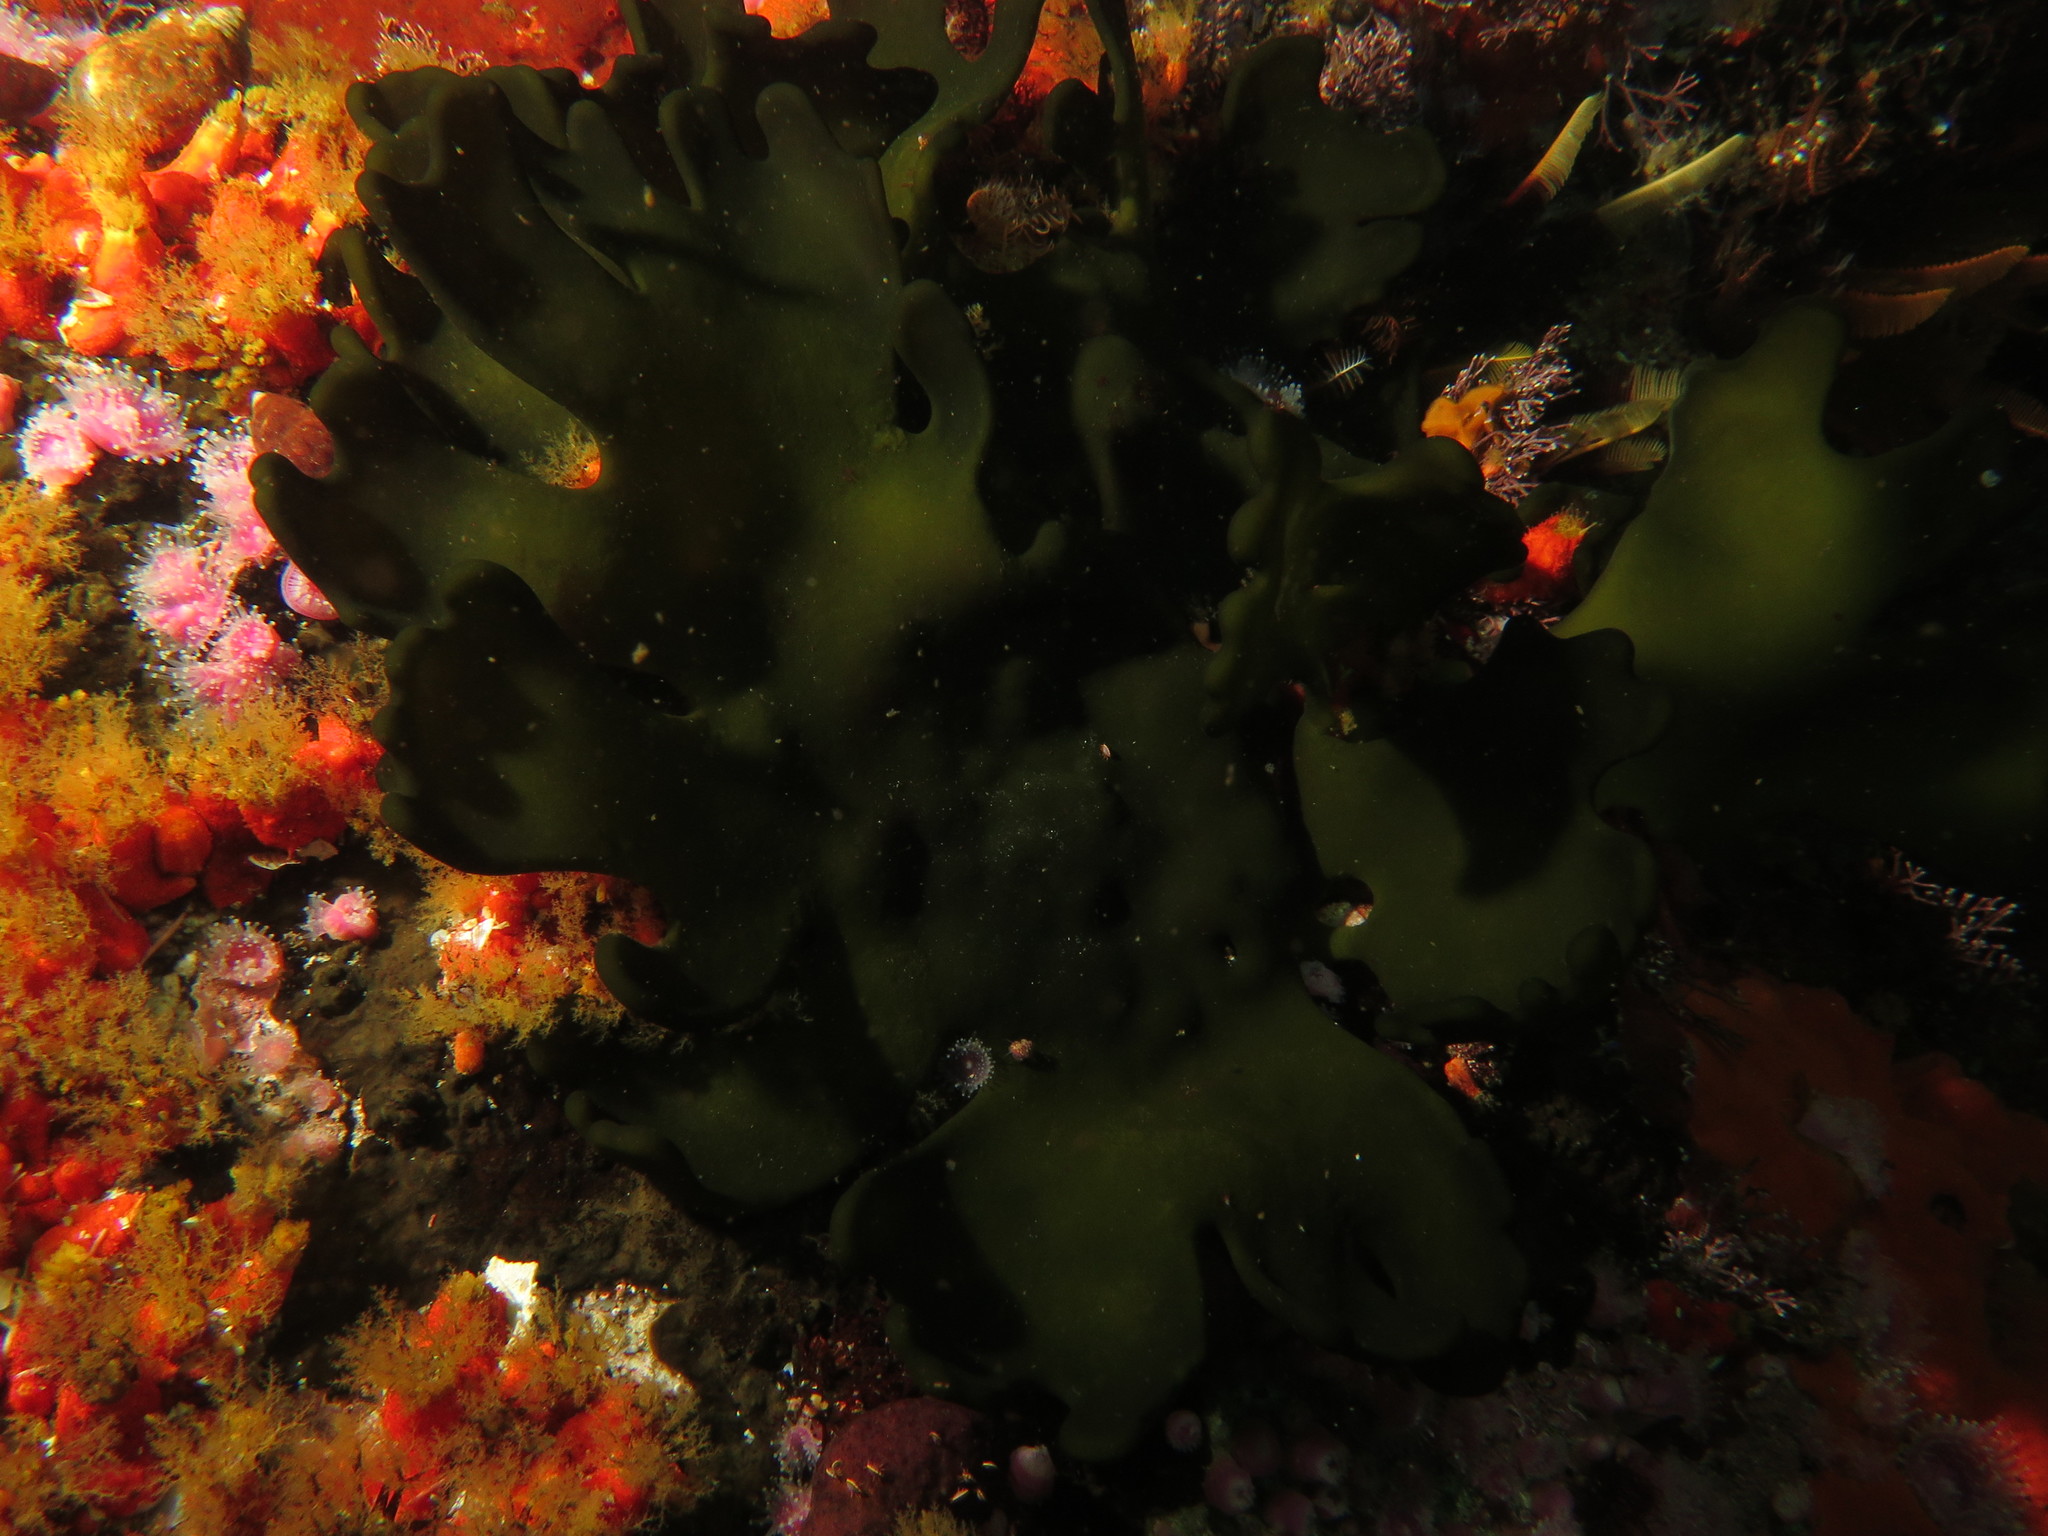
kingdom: Plantae
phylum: Chlorophyta
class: Ulvophyceae
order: Bryopsidales
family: Codiaceae
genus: Codium
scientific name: Codium
